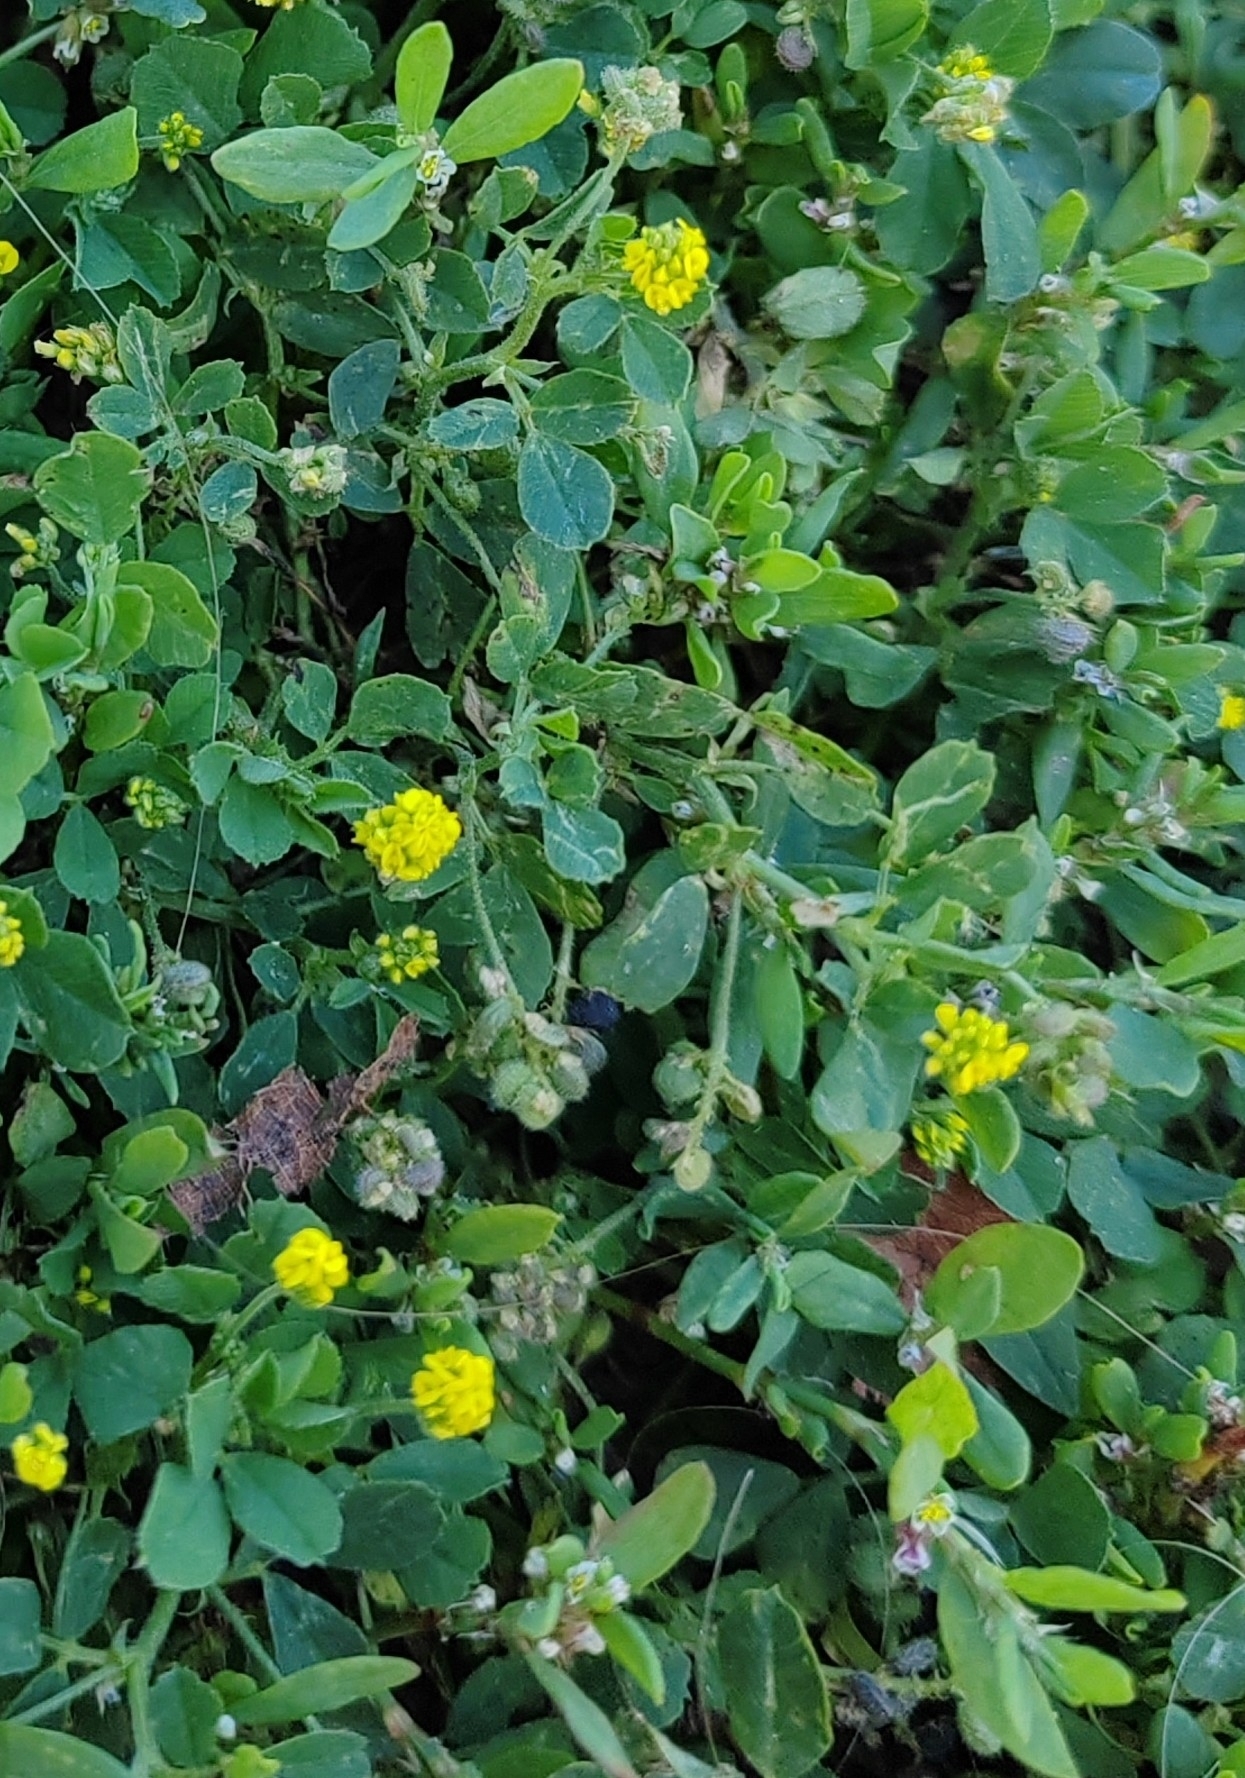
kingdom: Plantae
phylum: Tracheophyta
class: Magnoliopsida
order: Fabales
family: Fabaceae
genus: Medicago
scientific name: Medicago lupulina
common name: Black medick
